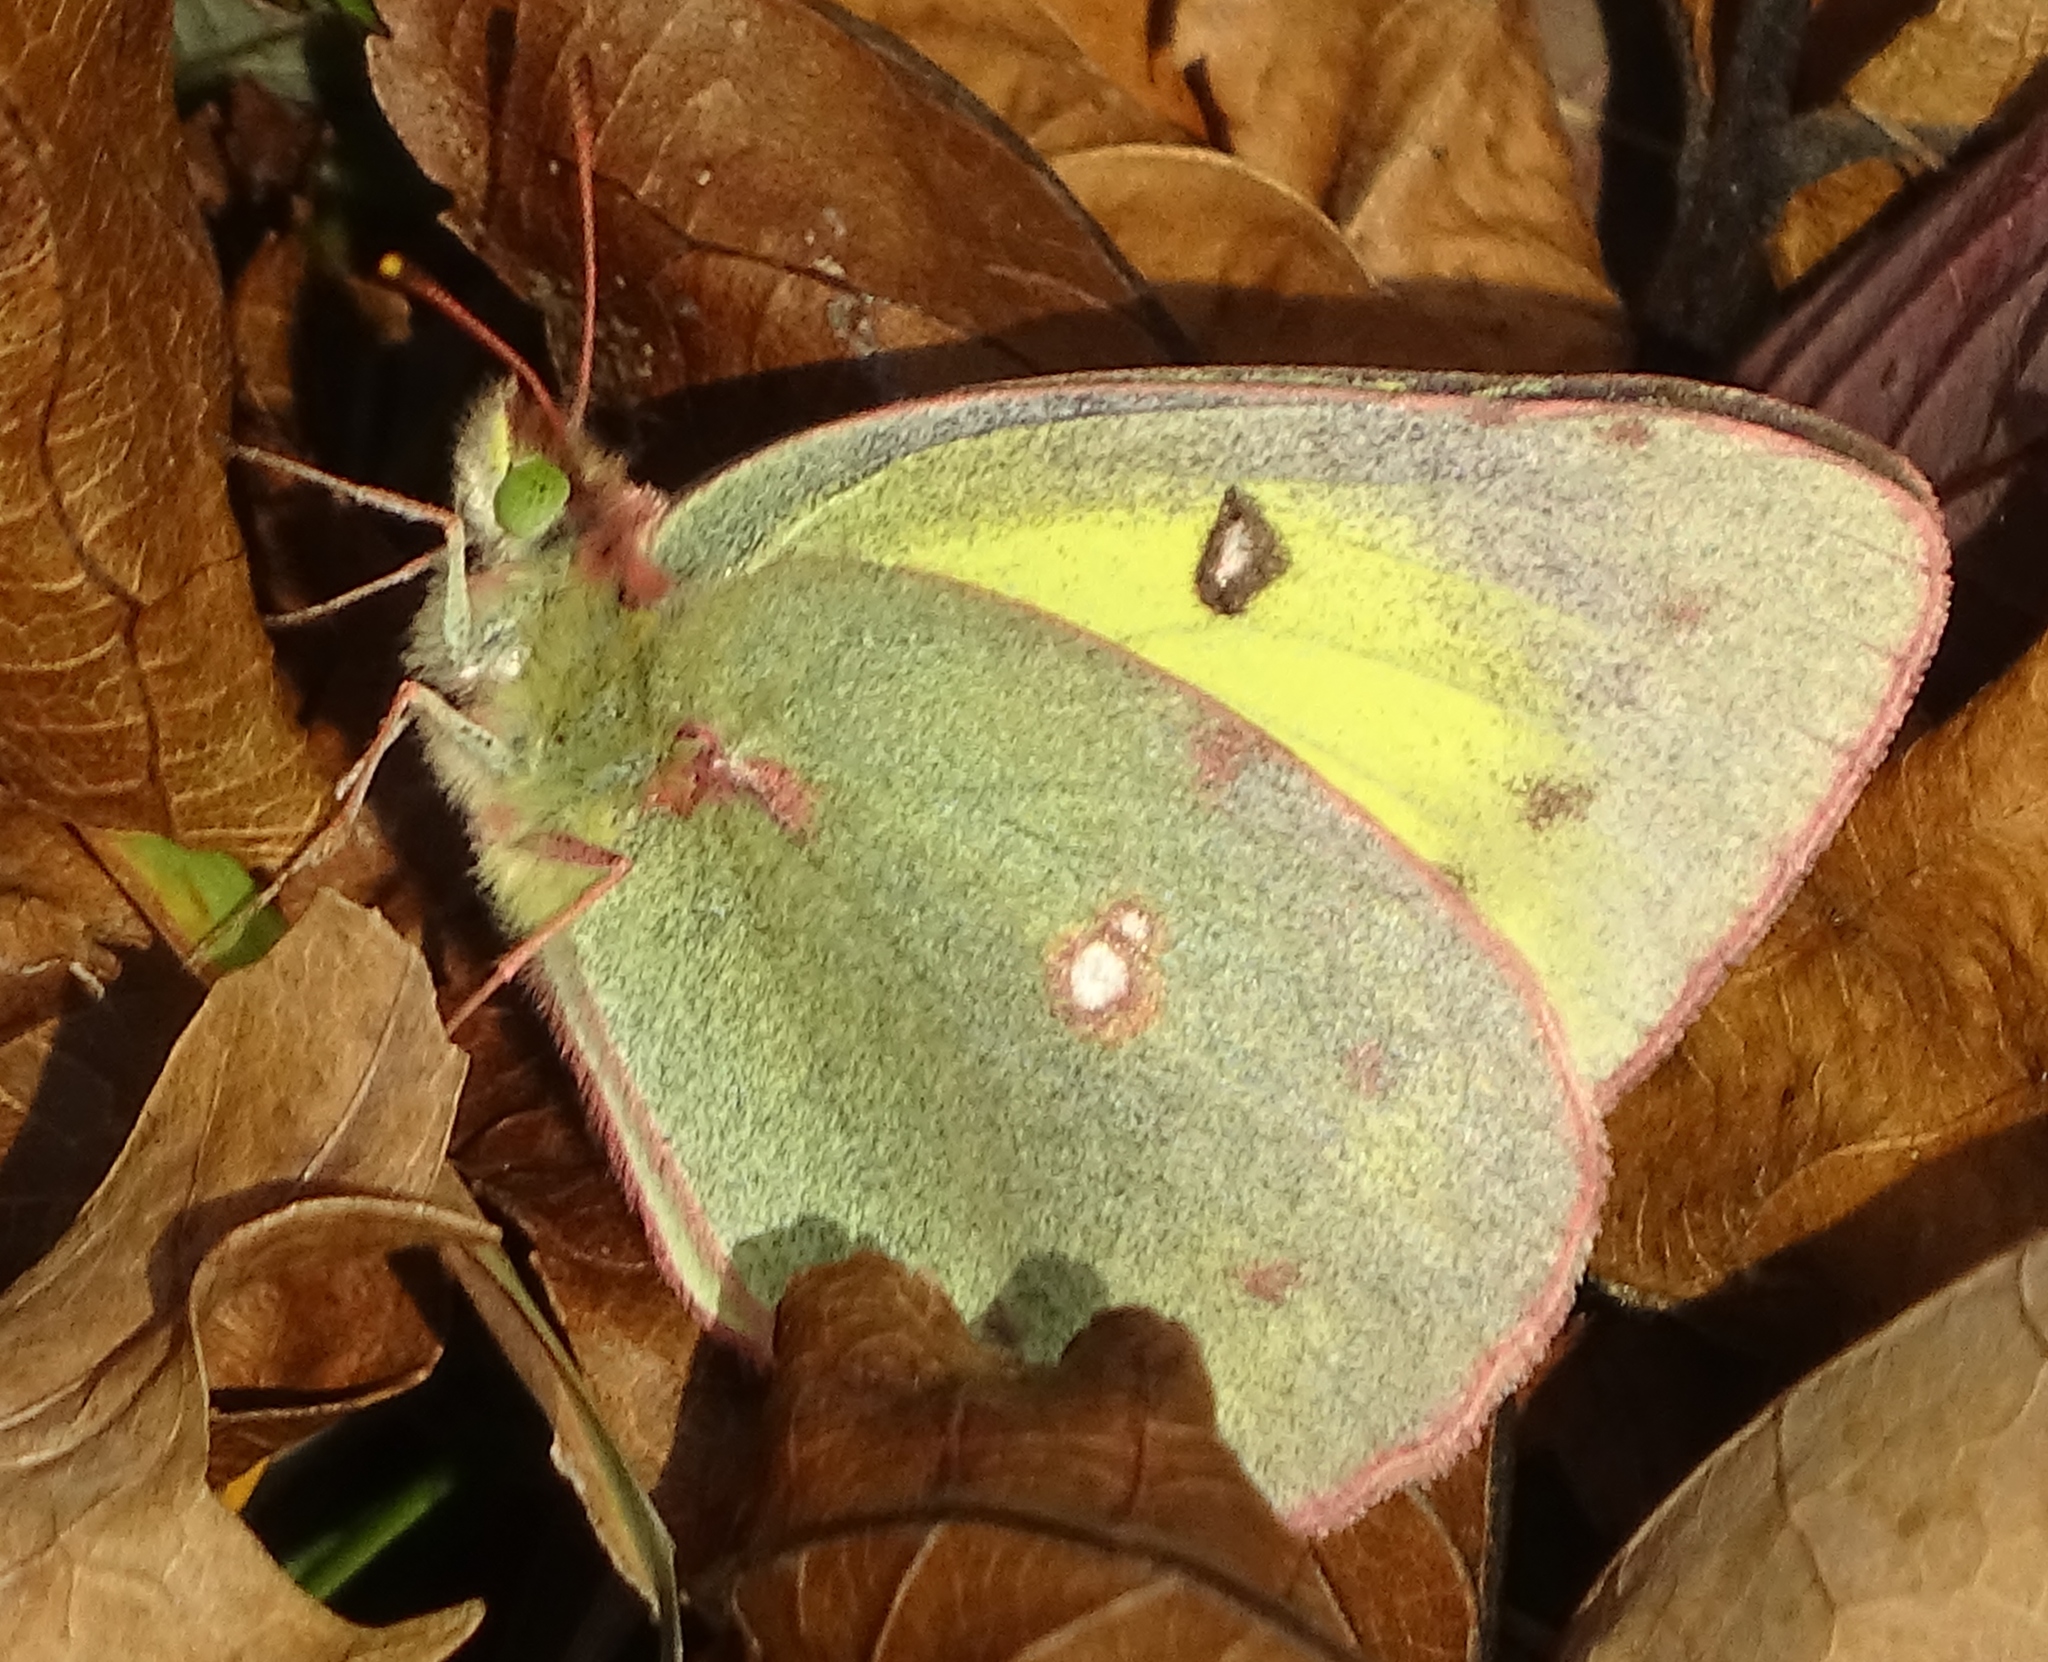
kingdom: Animalia
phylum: Arthropoda
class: Insecta
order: Lepidoptera
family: Pieridae
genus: Colias
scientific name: Colias philodice
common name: Clouded sulphur
